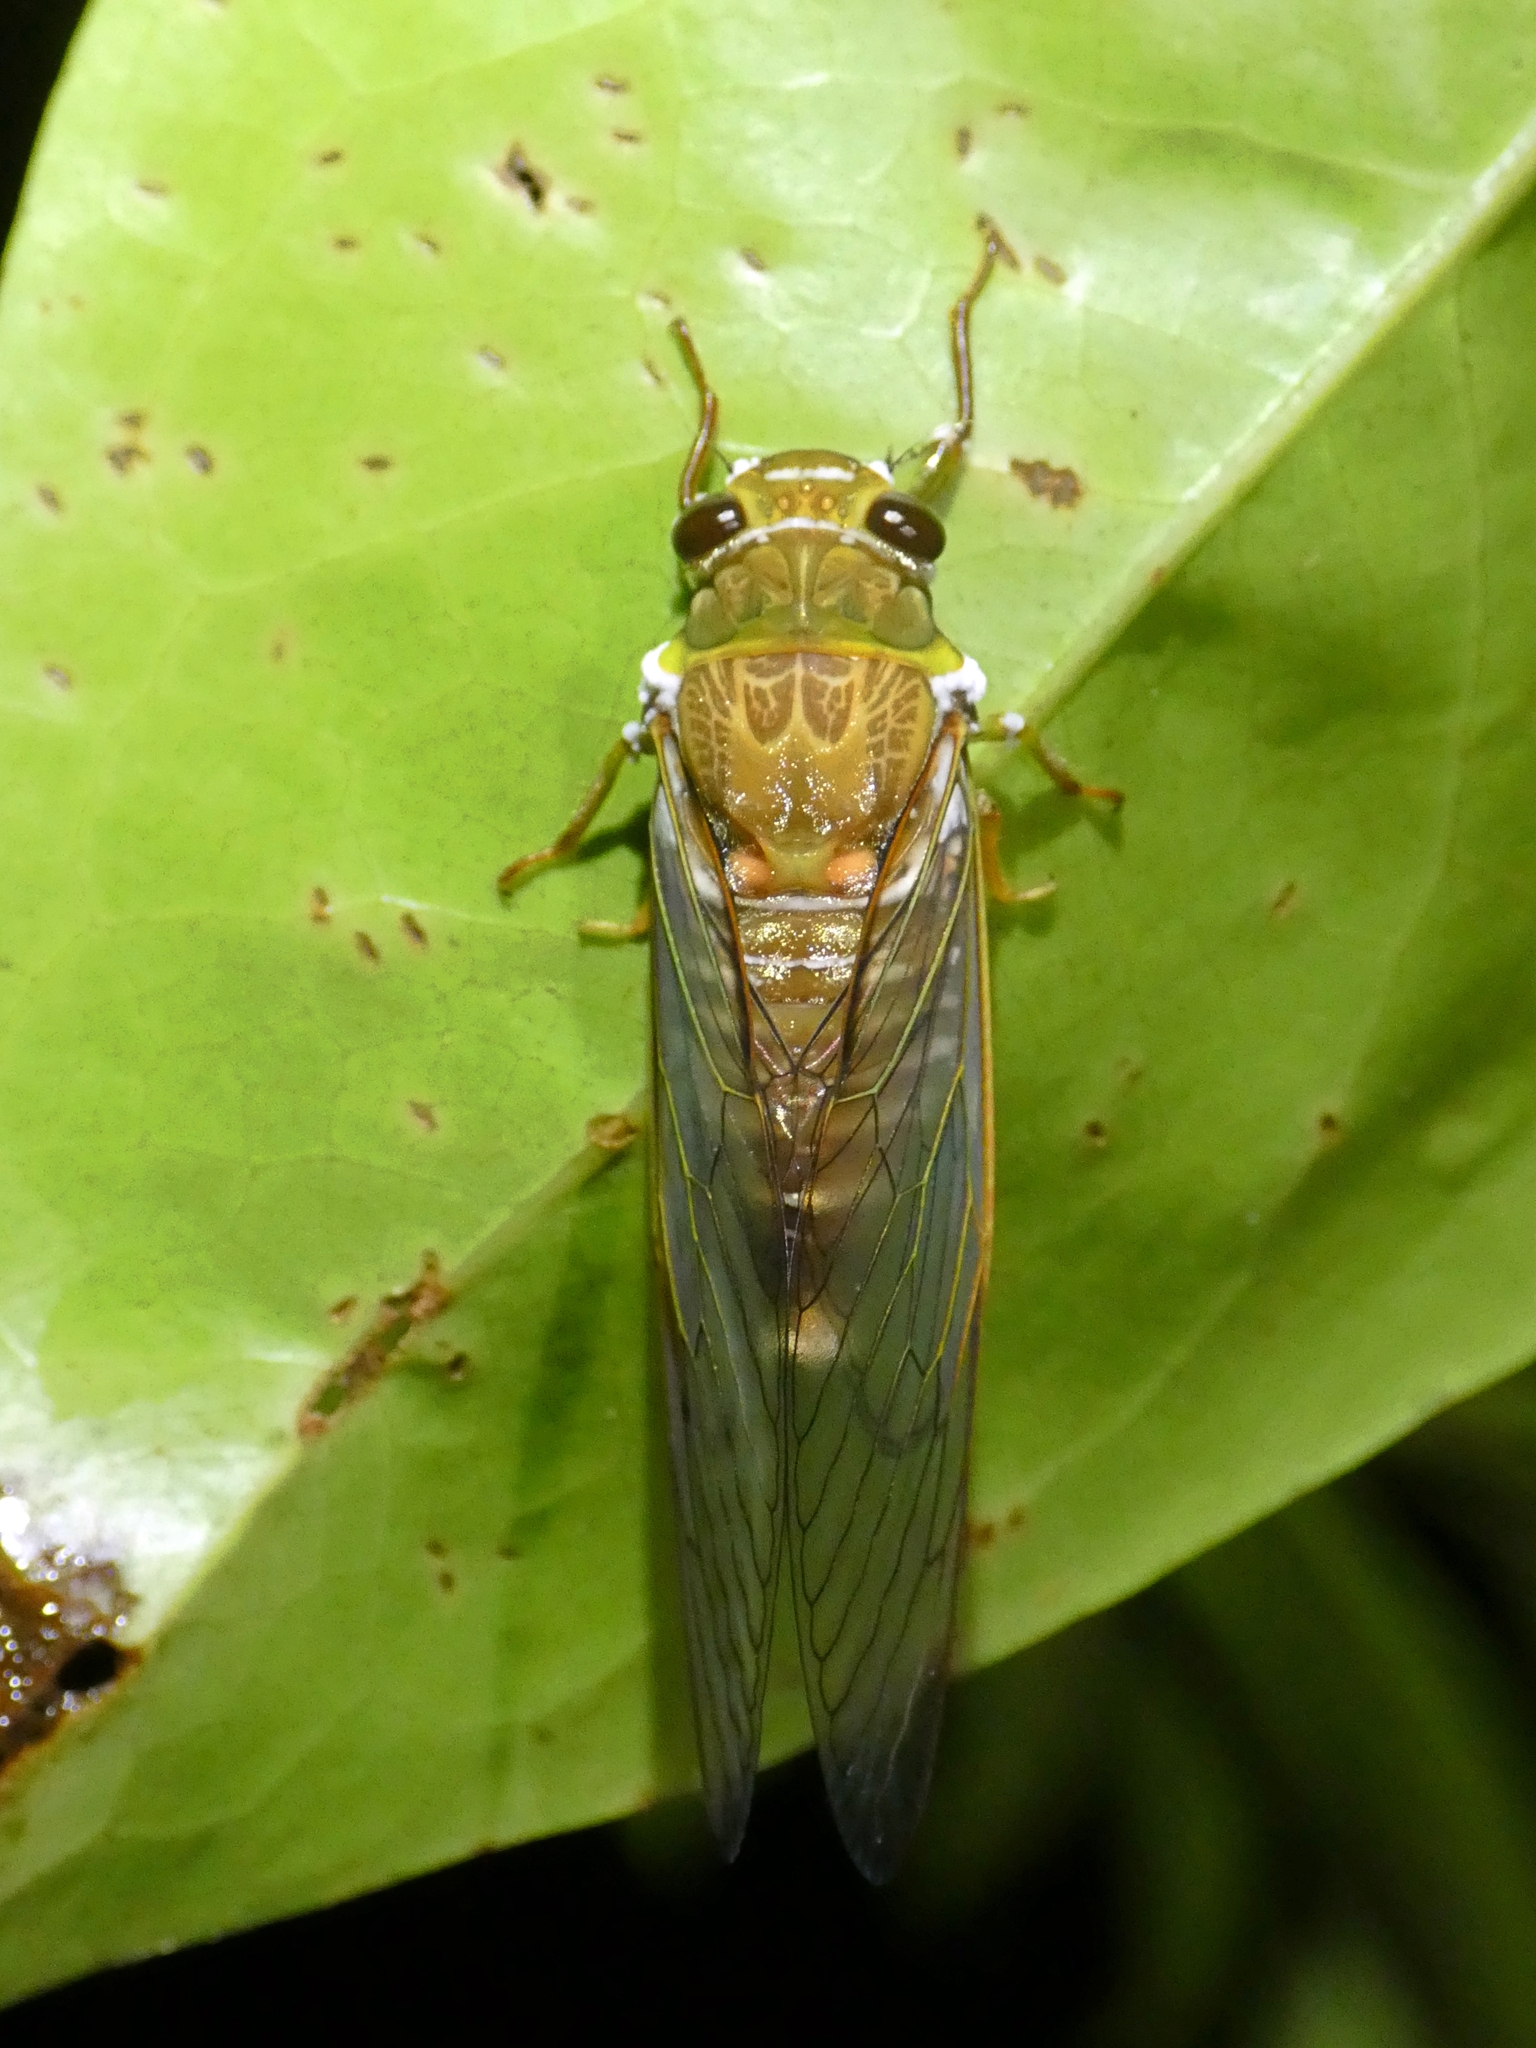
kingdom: Animalia
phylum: Arthropoda
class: Insecta
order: Hemiptera
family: Cicadidae
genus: Venustria
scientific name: Venustria superba
